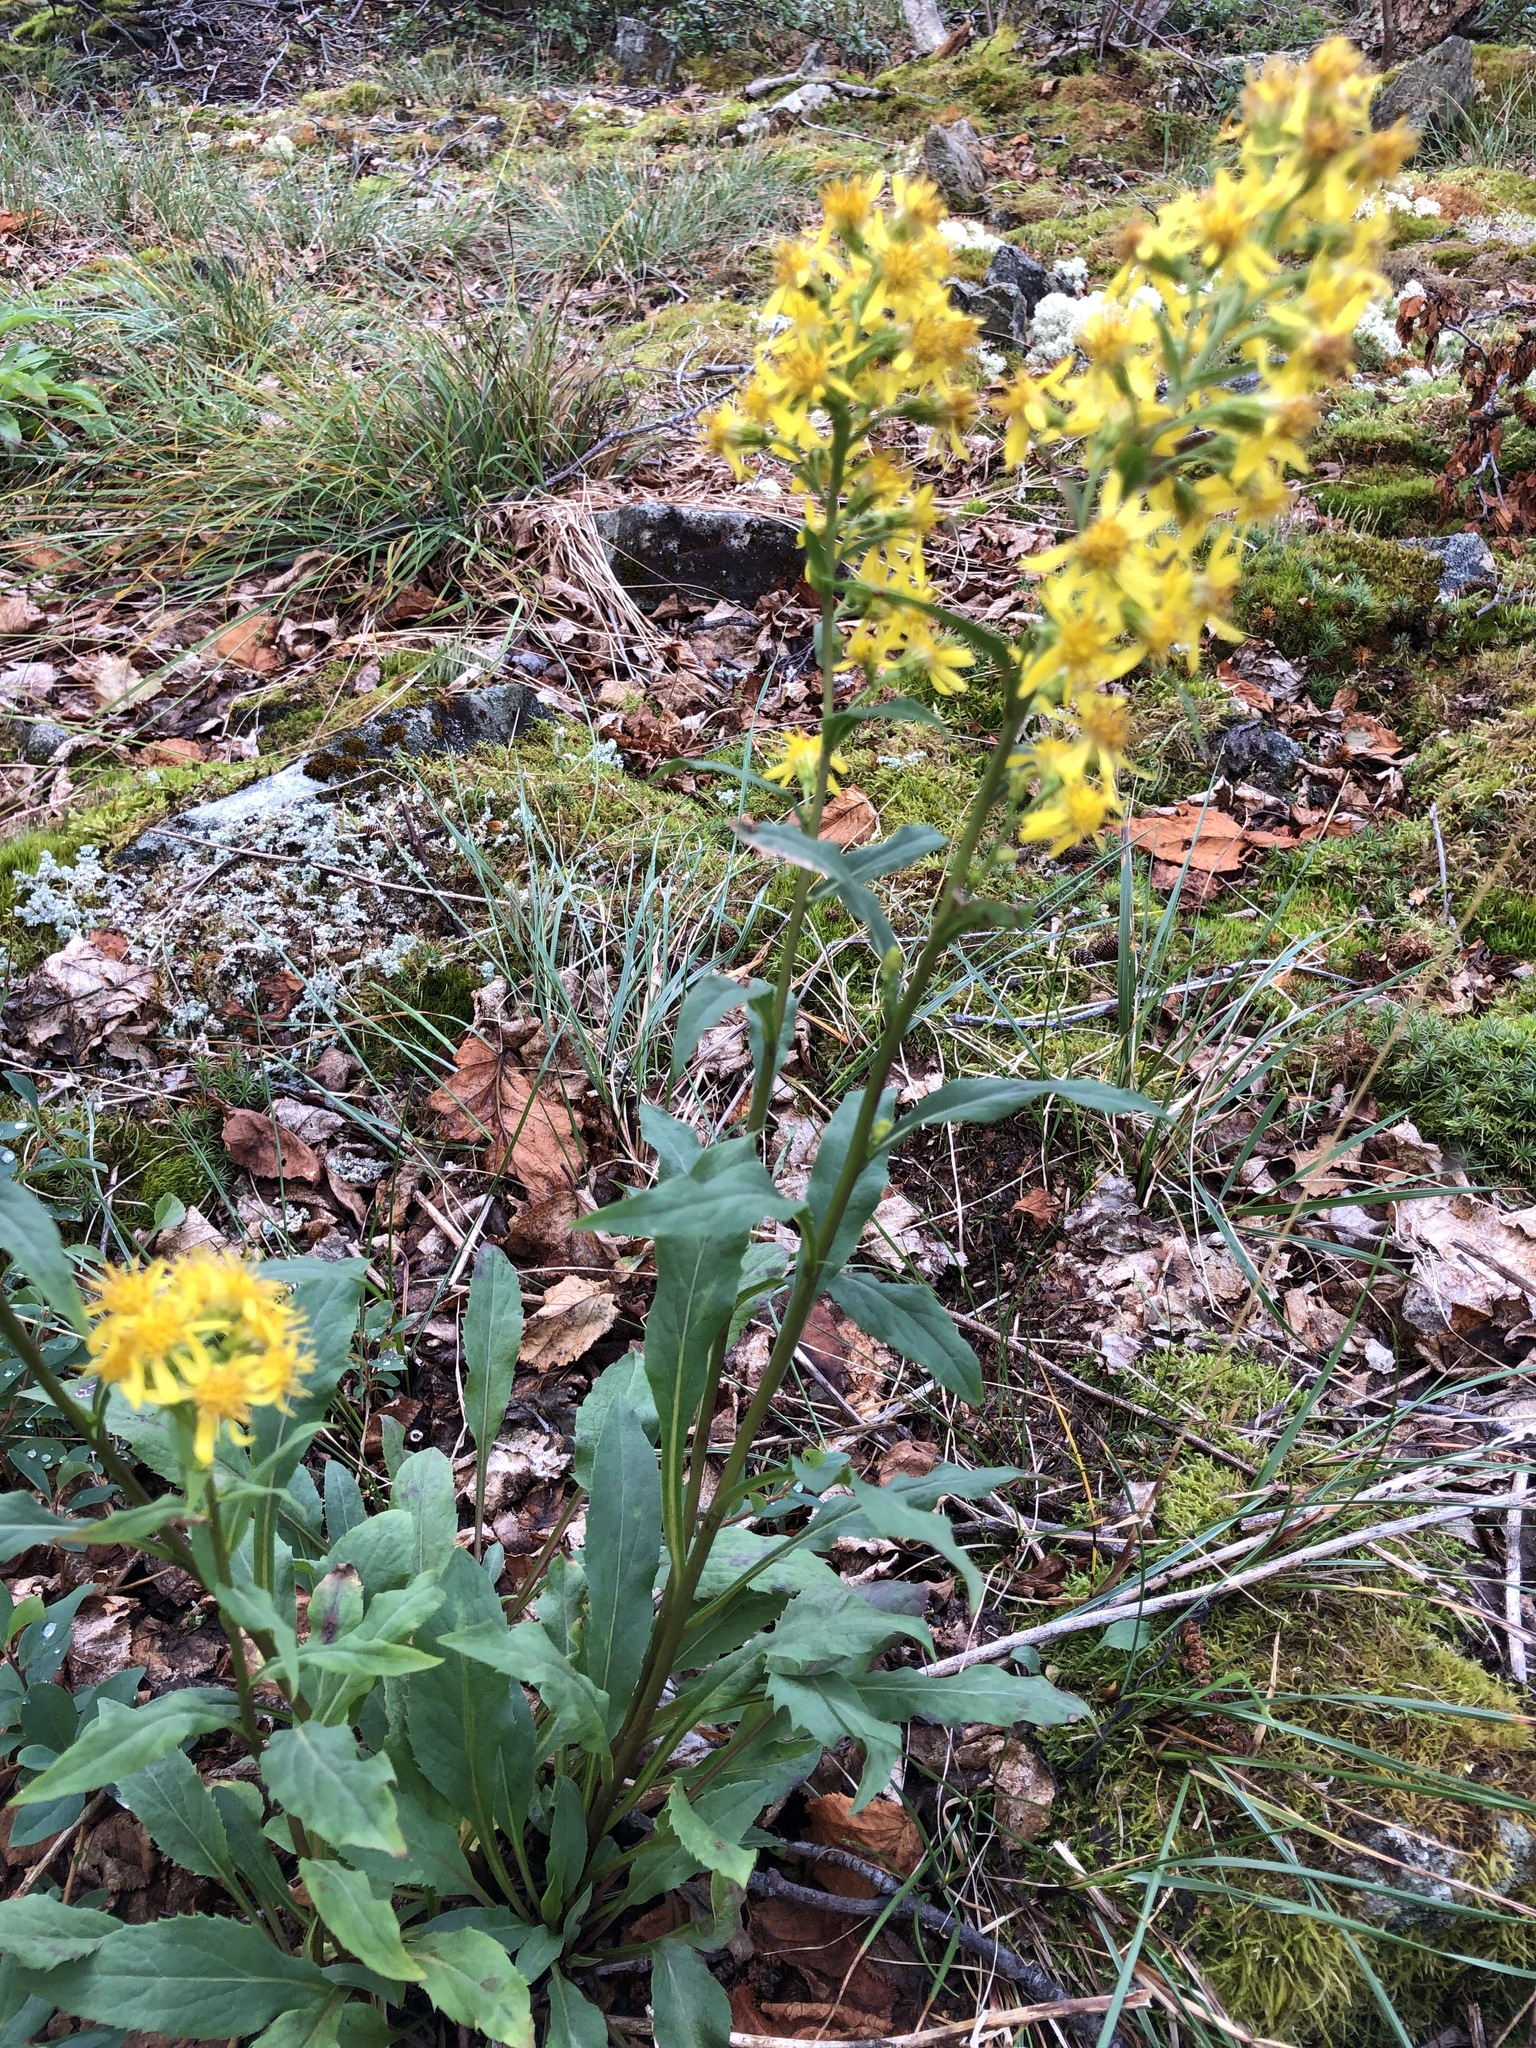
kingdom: Plantae
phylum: Tracheophyta
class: Magnoliopsida
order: Asterales
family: Asteraceae
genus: Solidago
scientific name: Solidago virgaurea
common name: Goldenrod
